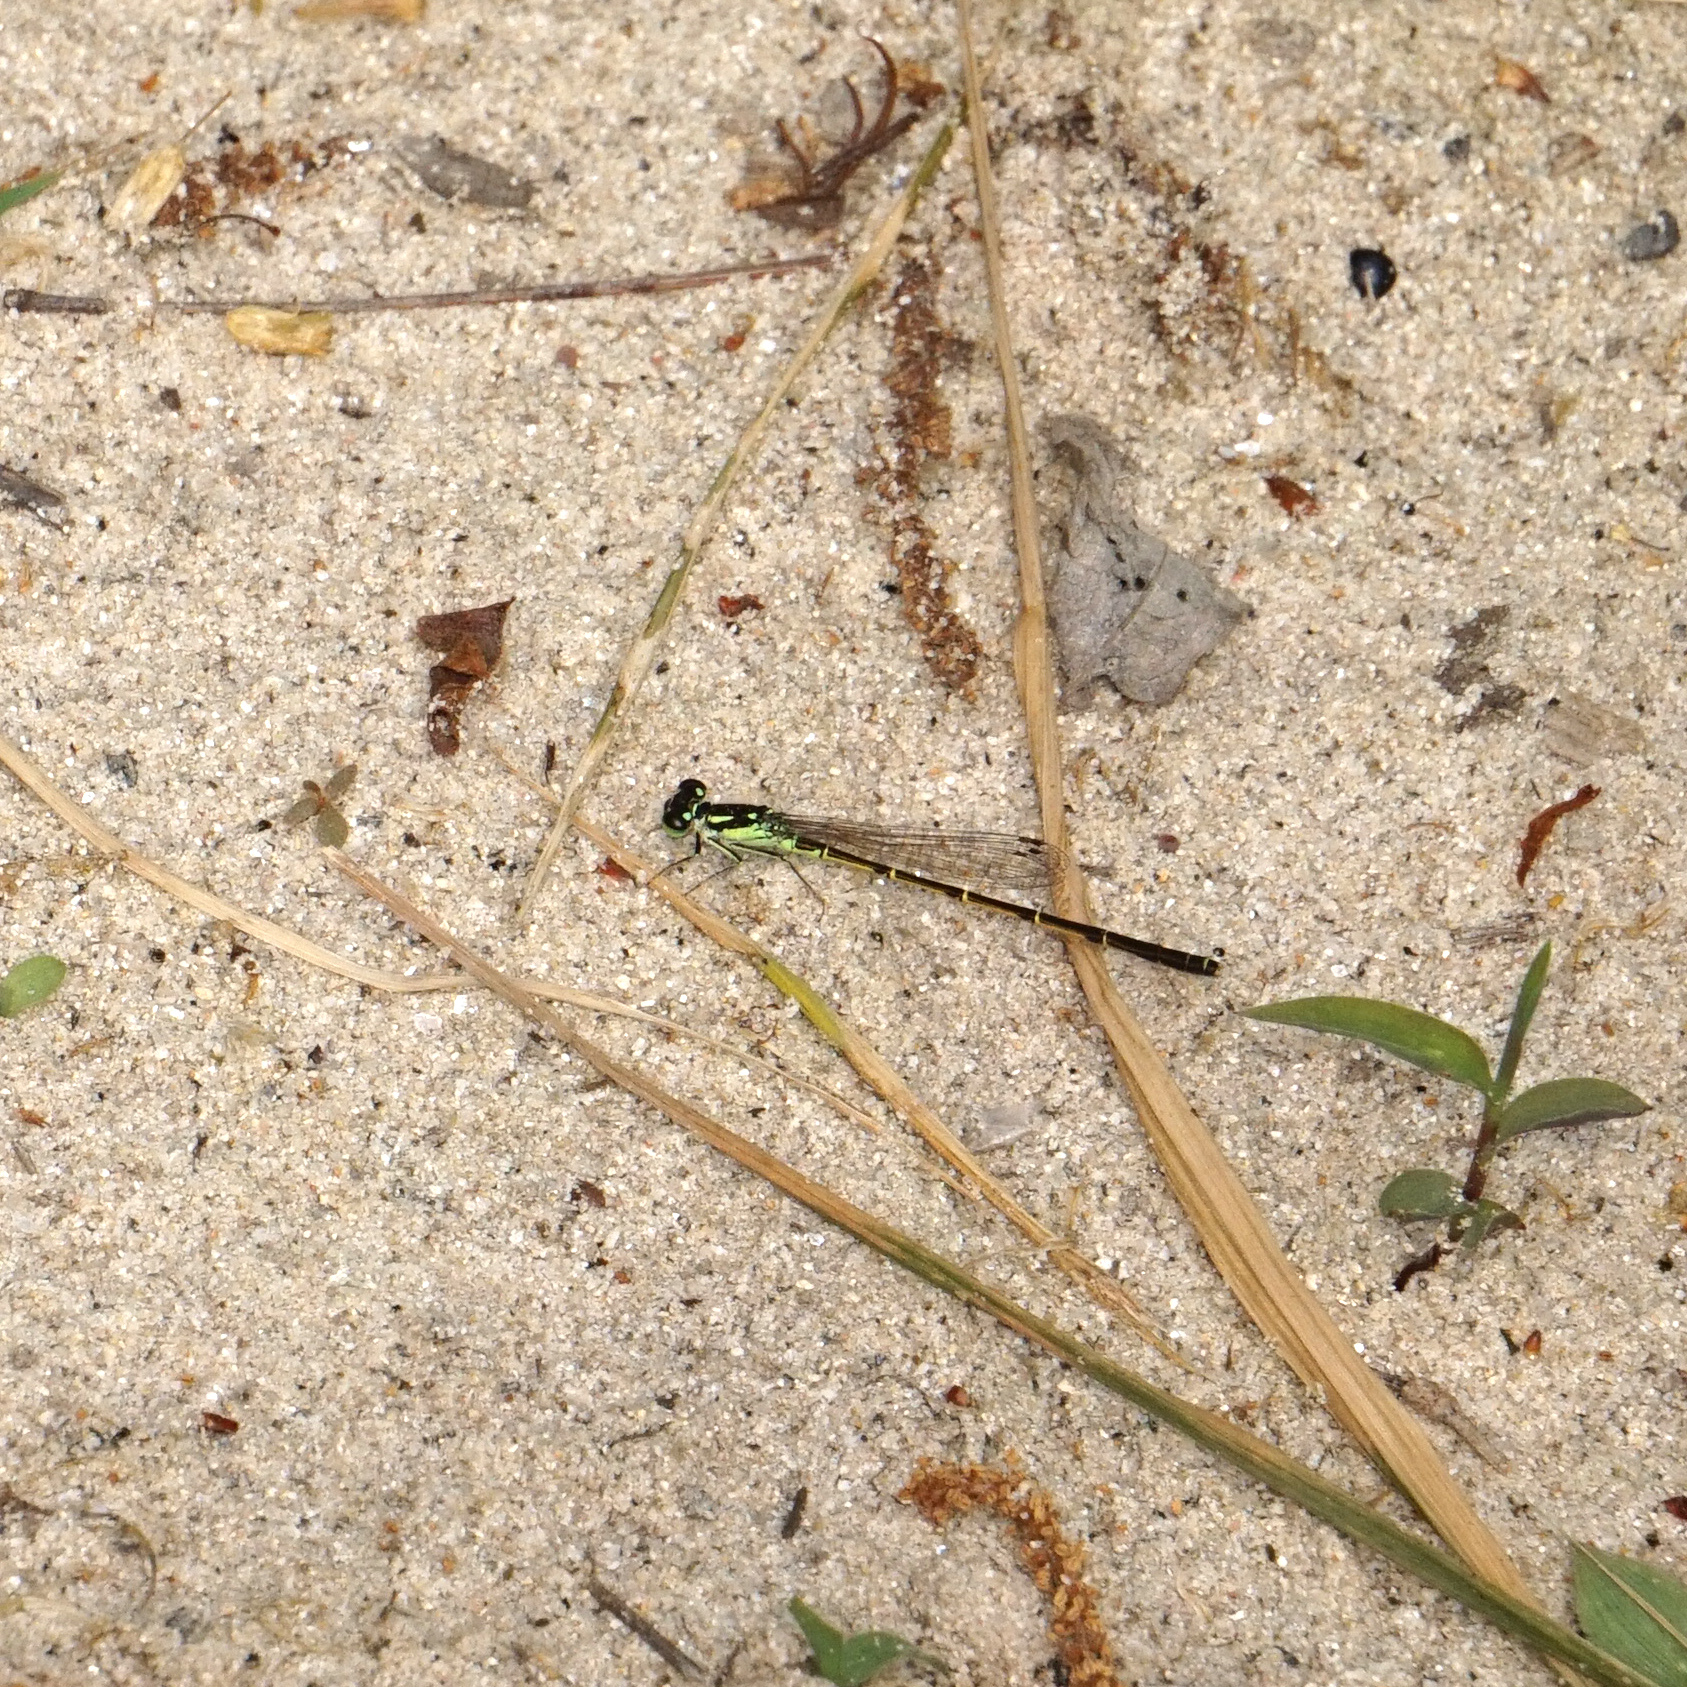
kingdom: Animalia
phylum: Arthropoda
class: Insecta
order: Odonata
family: Coenagrionidae
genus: Ischnura
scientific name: Ischnura posita
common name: Fragile forktail
